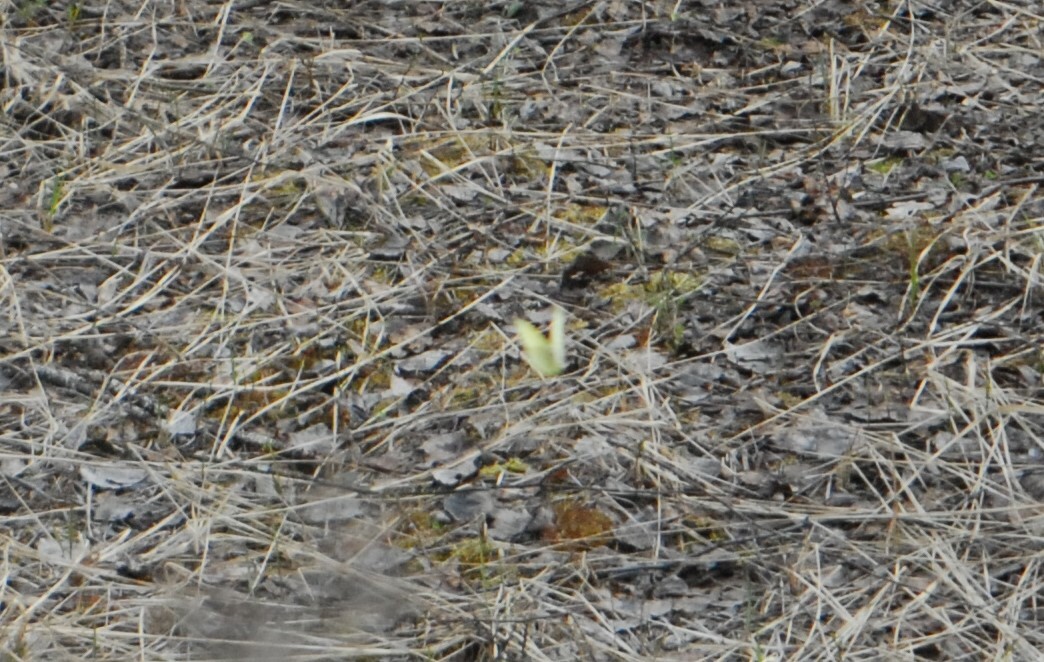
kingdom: Animalia
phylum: Arthropoda
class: Insecta
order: Lepidoptera
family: Pieridae
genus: Gonepteryx
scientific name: Gonepteryx rhamni
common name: Brimstone
